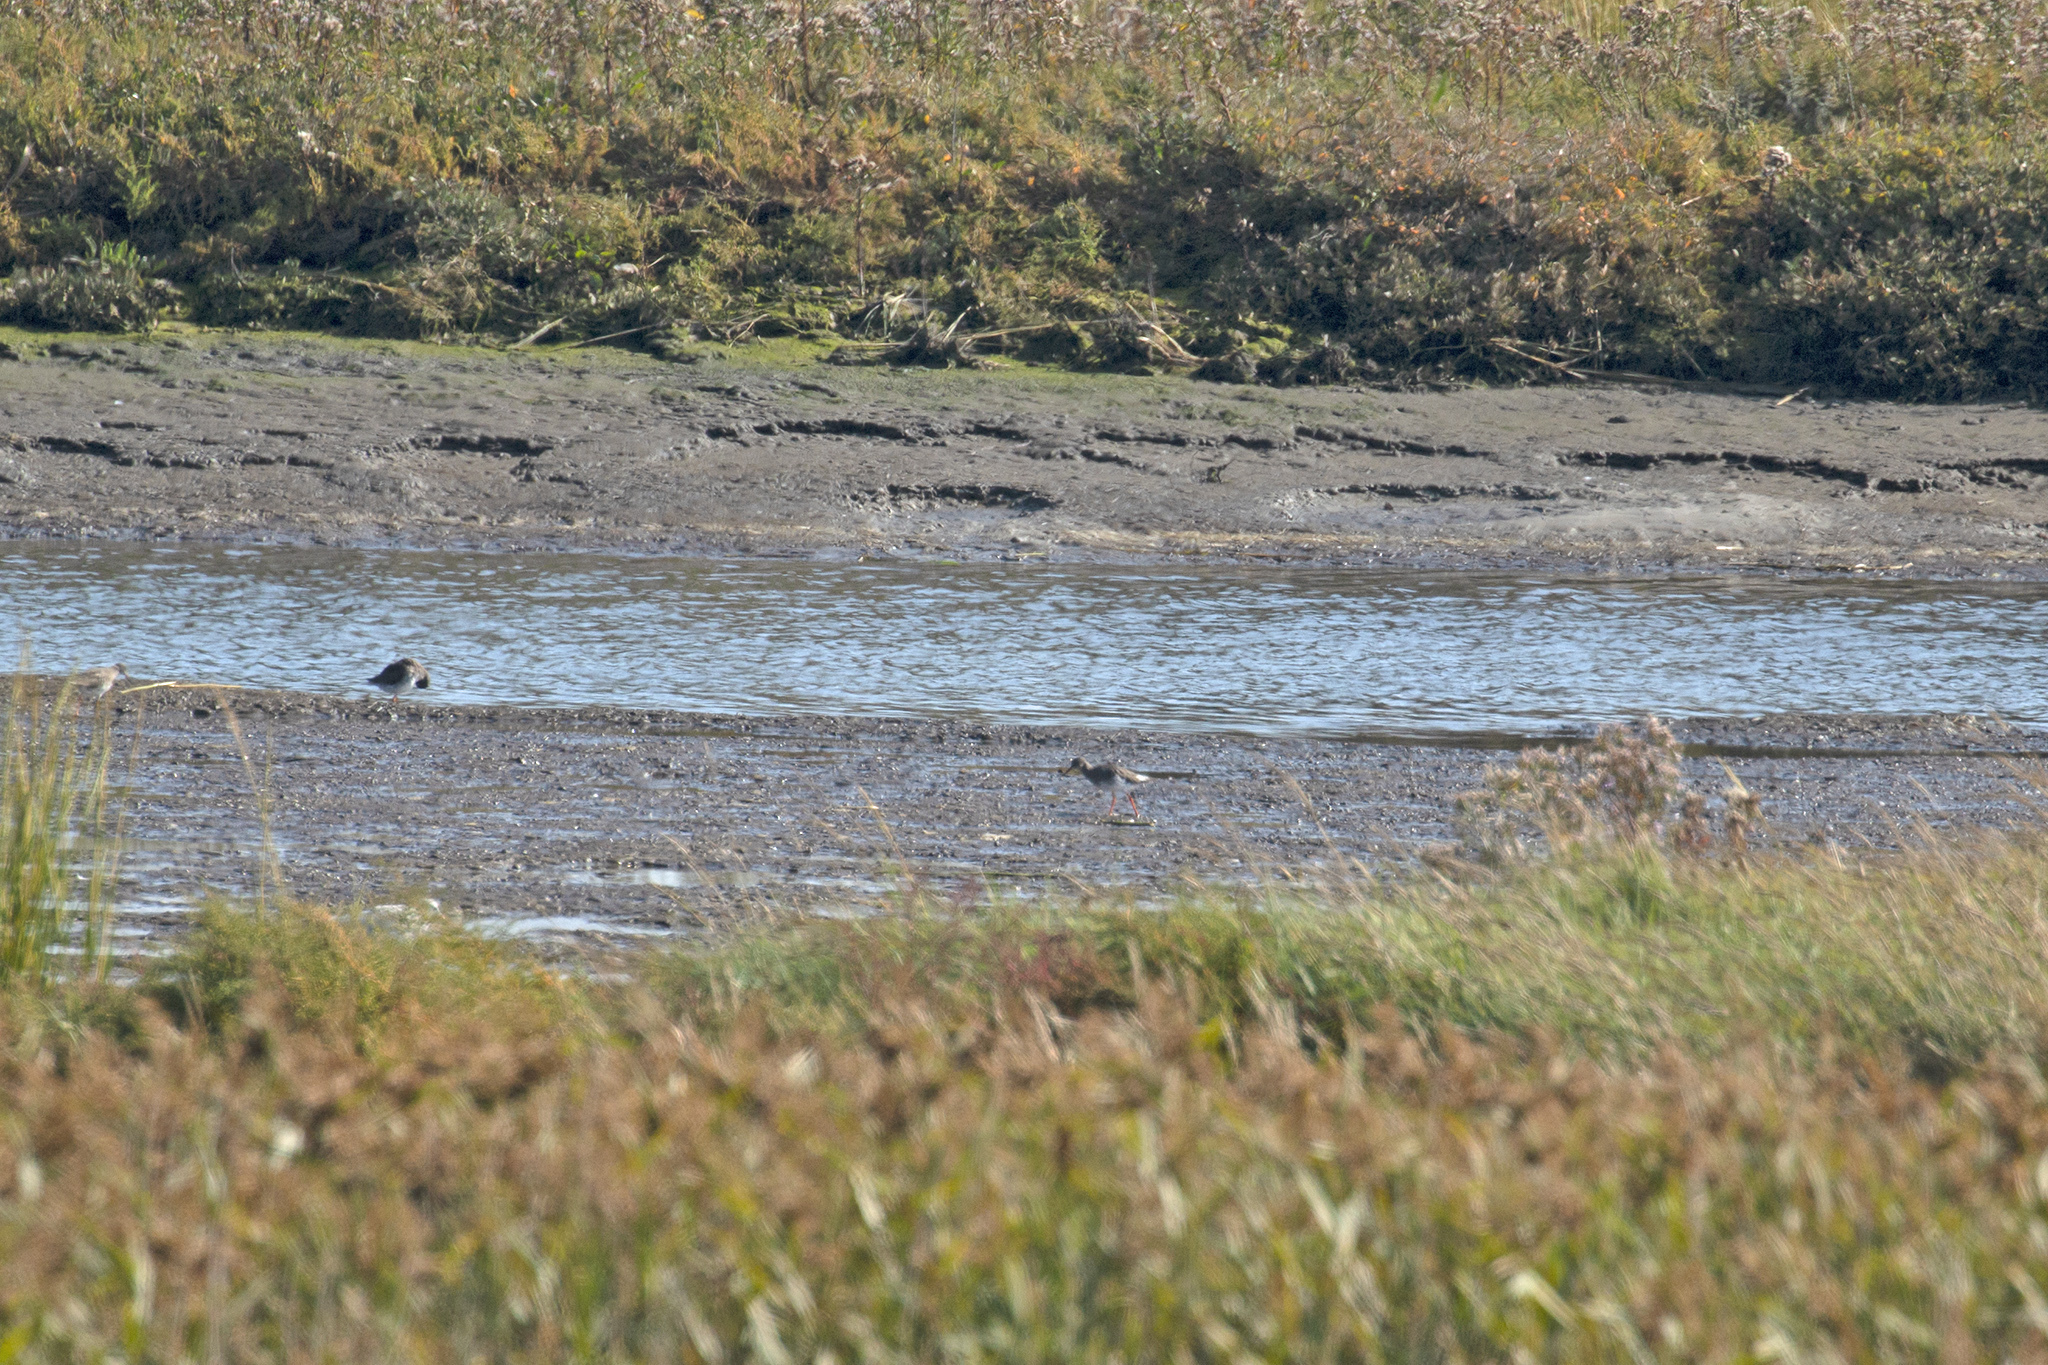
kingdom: Animalia
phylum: Chordata
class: Aves
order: Charadriiformes
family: Scolopacidae
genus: Tringa
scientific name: Tringa totanus
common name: Common redshank
